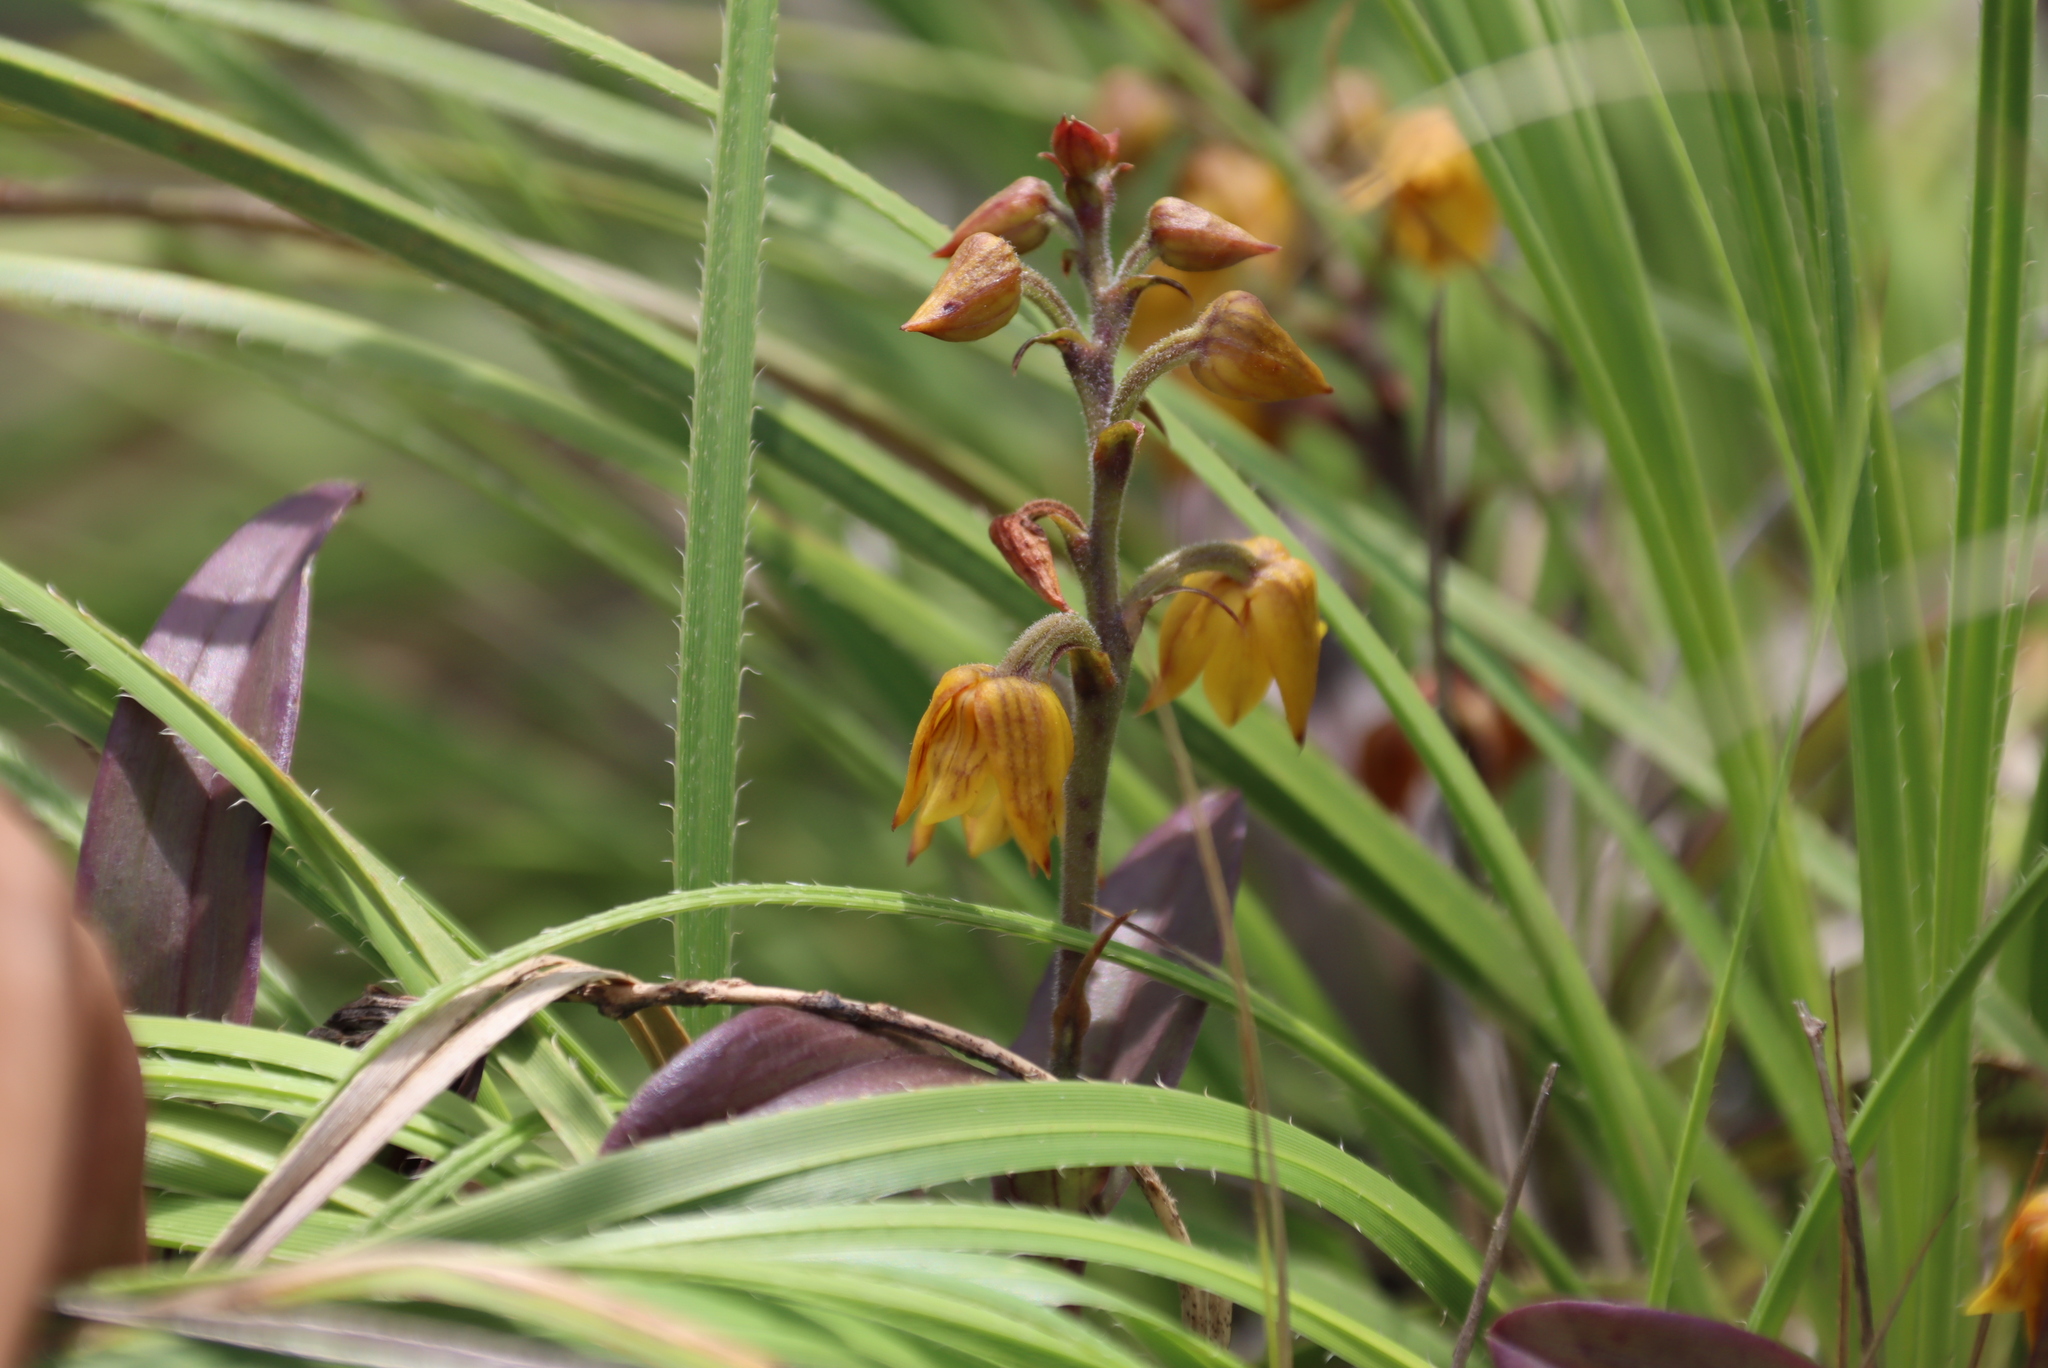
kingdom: Plantae
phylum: Tracheophyta
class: Liliopsida
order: Asparagales
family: Orchidaceae
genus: Polystachya
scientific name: Polystachya ngomensis
